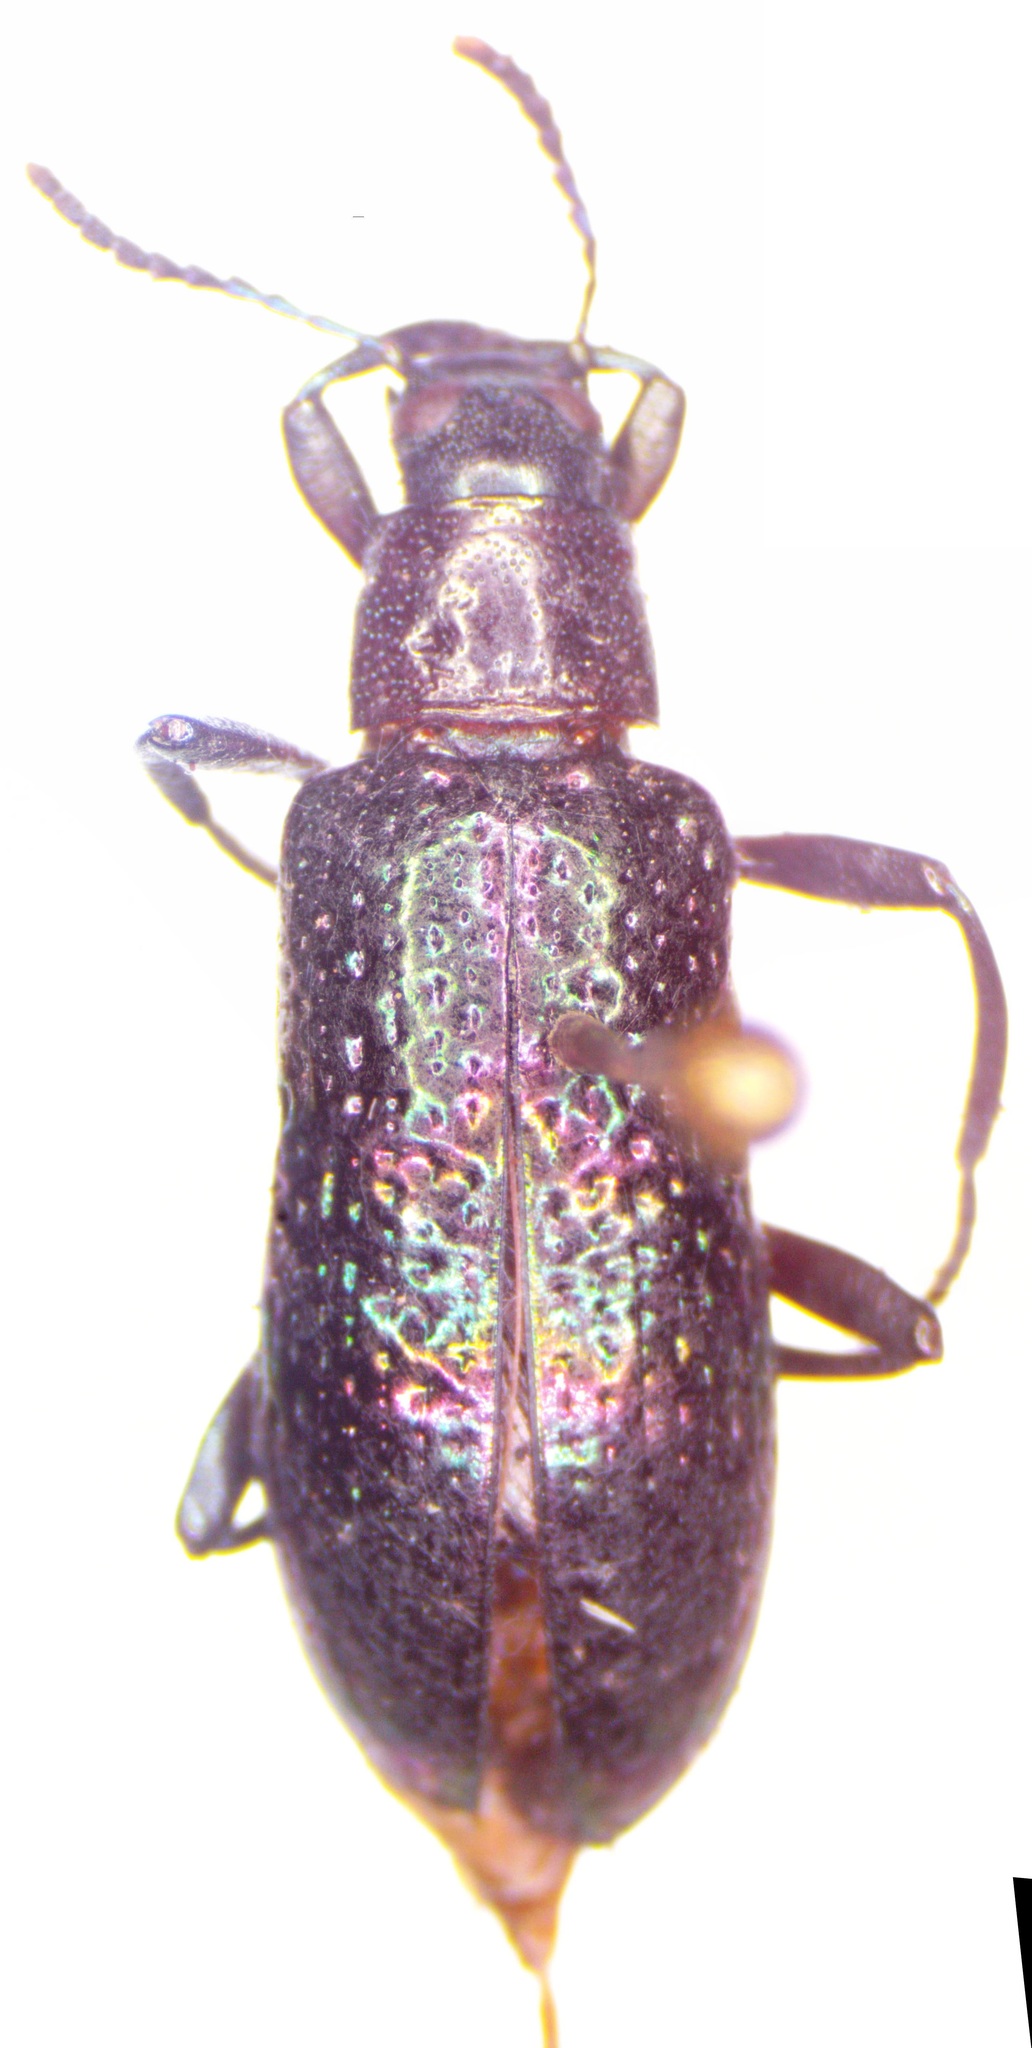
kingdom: Animalia
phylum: Arthropoda
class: Insecta
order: Coleoptera
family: Tenebrionidae
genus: Strongylium
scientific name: Strongylium ignitum
